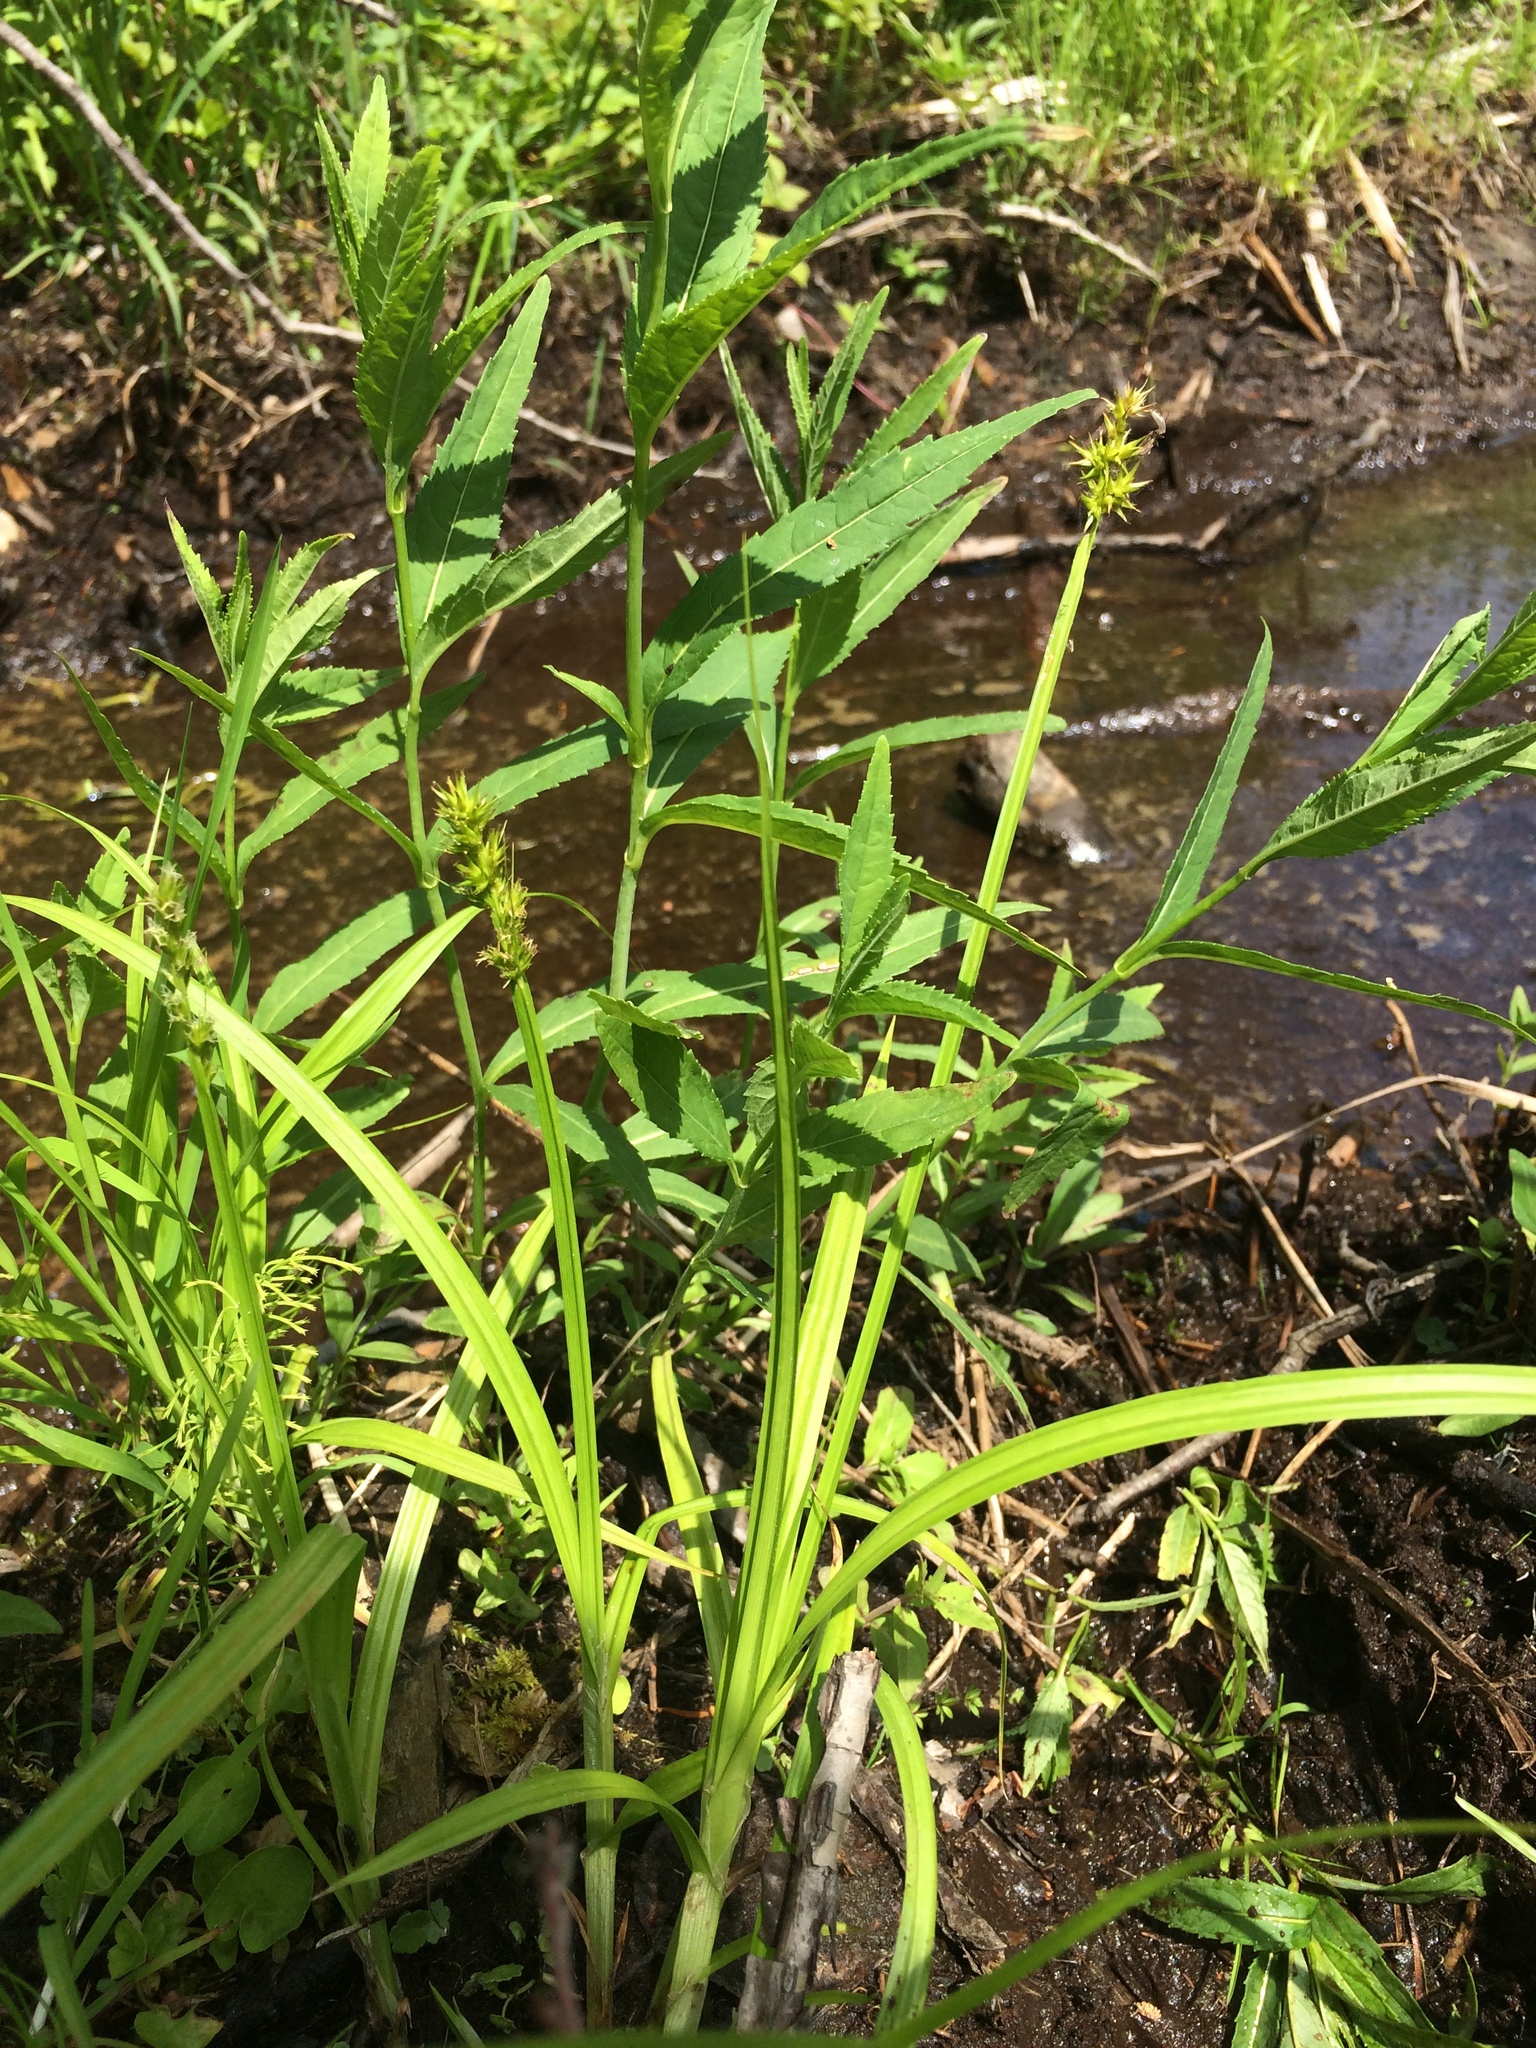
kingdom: Plantae
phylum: Tracheophyta
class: Liliopsida
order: Poales
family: Cyperaceae
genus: Carex
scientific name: Carex stipata
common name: Awl-fruited sedge
